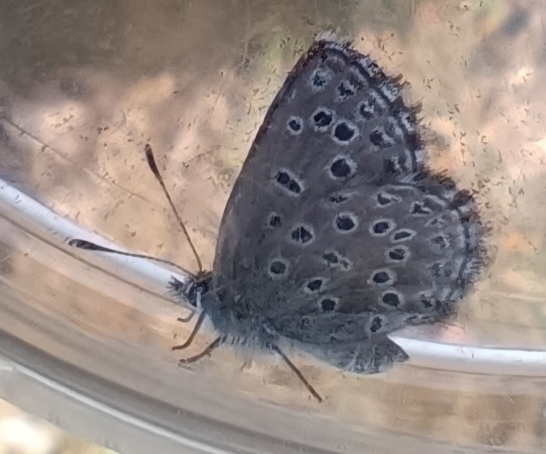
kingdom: Animalia
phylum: Arthropoda
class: Insecta
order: Lepidoptera
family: Lycaenidae
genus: Pseudophilotes
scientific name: Pseudophilotes baton
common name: Baton blue
